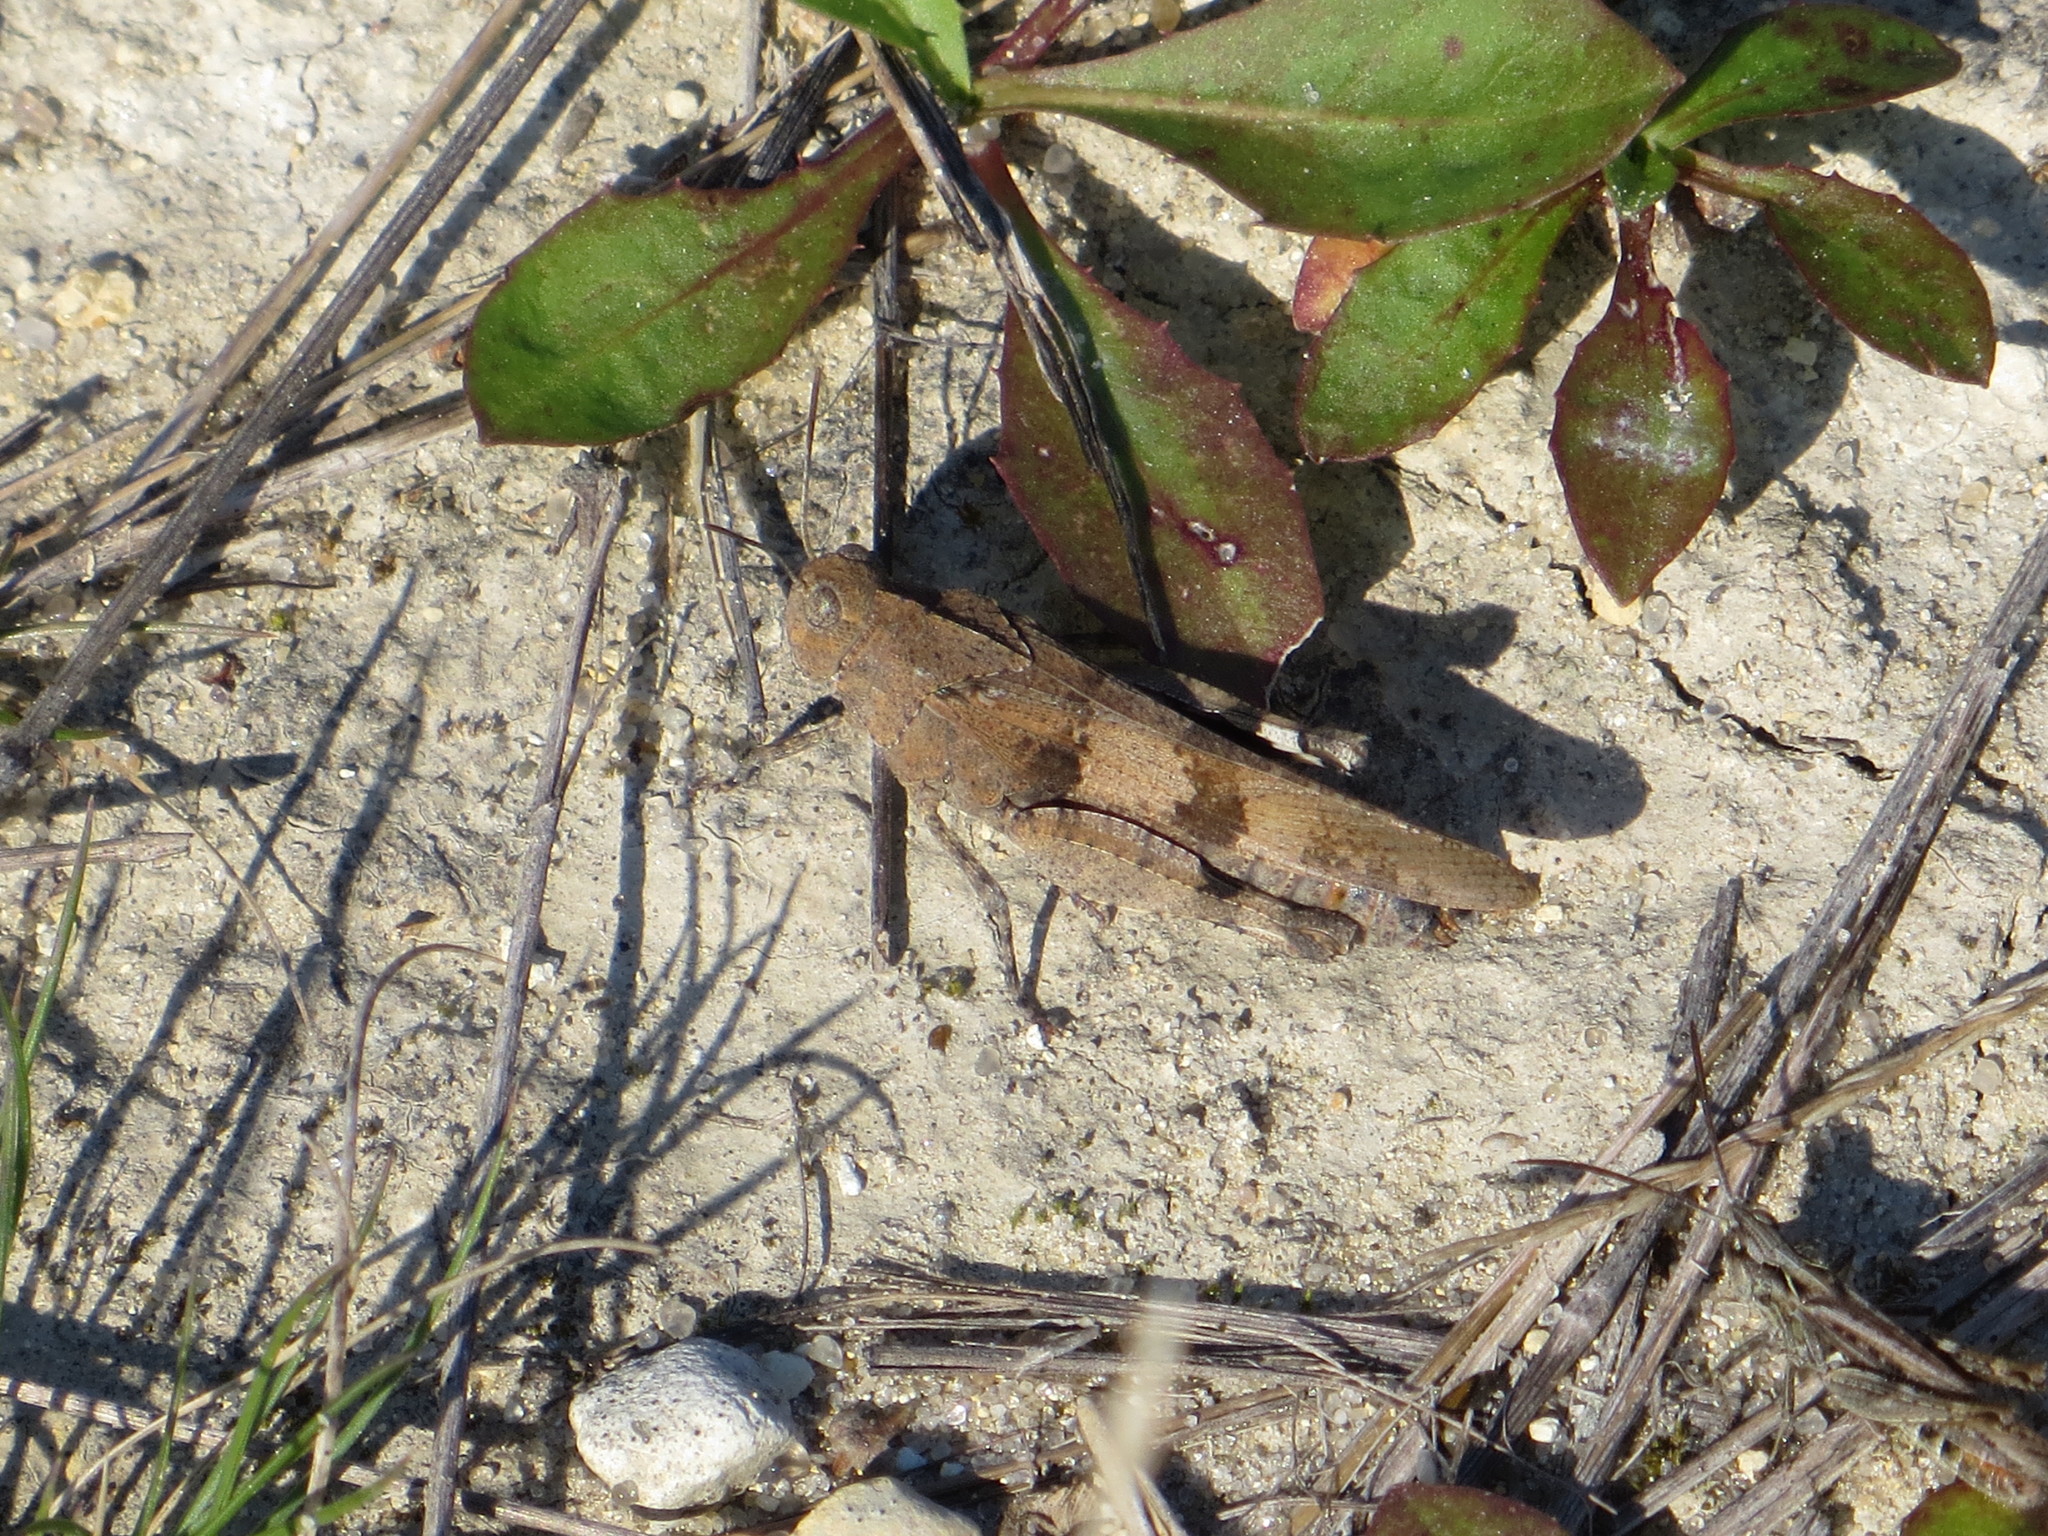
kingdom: Animalia
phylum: Arthropoda
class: Insecta
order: Orthoptera
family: Acrididae
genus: Oedipoda
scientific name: Oedipoda caerulescens
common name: Blue-winged grasshopper
